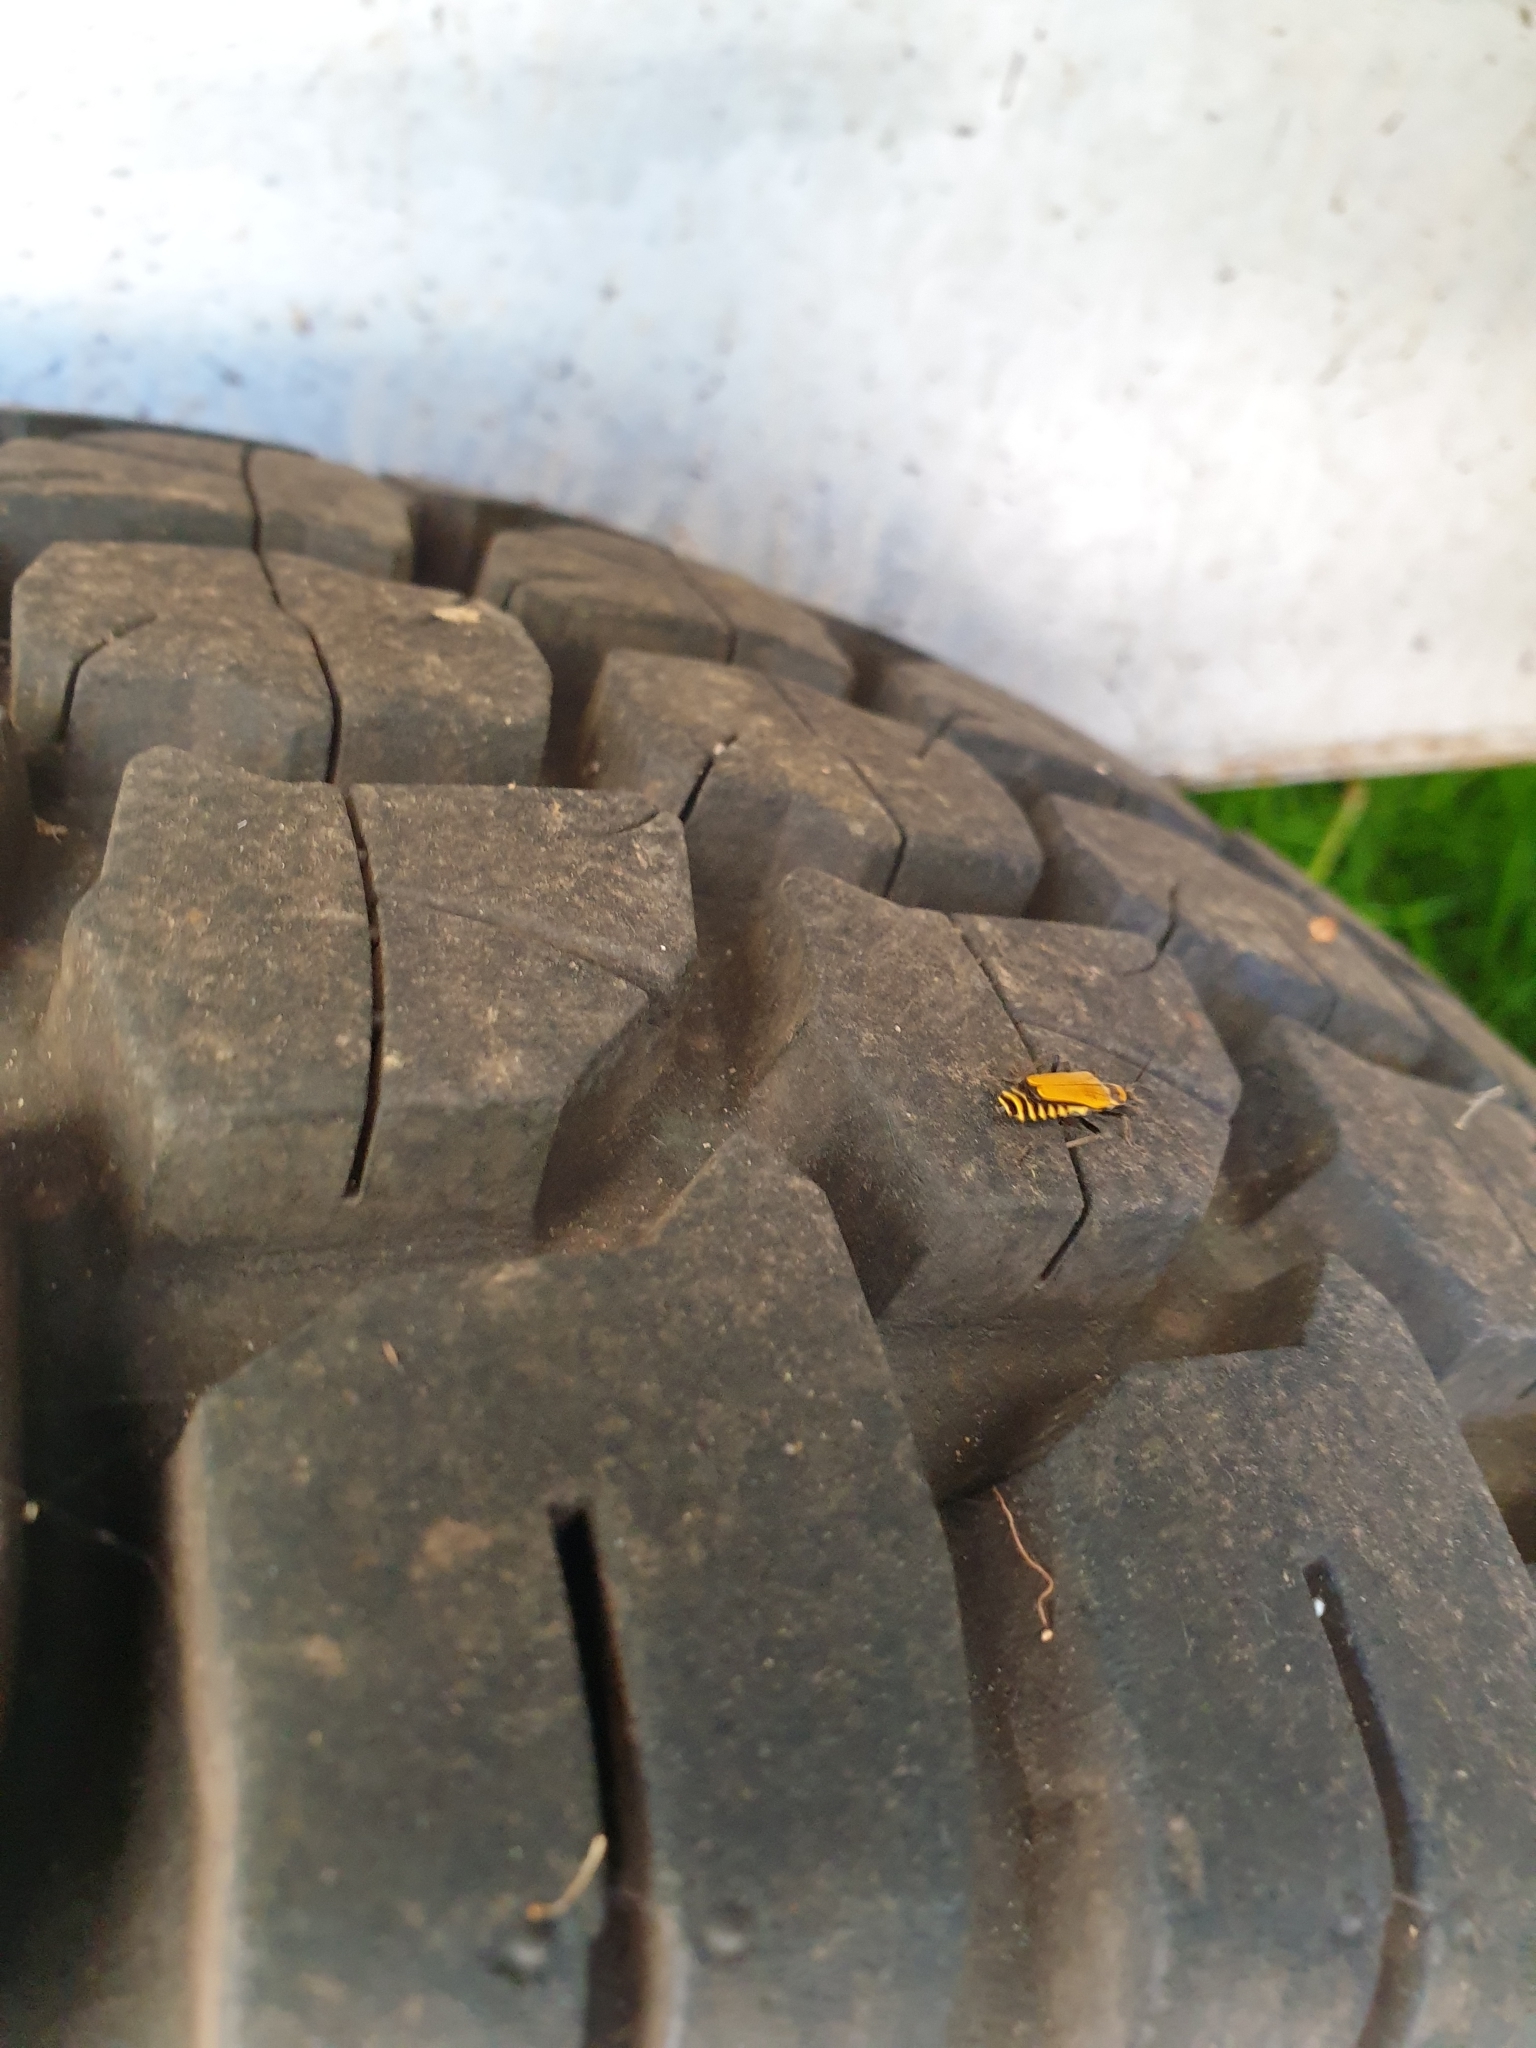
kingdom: Animalia
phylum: Arthropoda
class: Insecta
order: Coleoptera
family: Cantharidae
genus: Chauliognathus
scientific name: Chauliognathus
